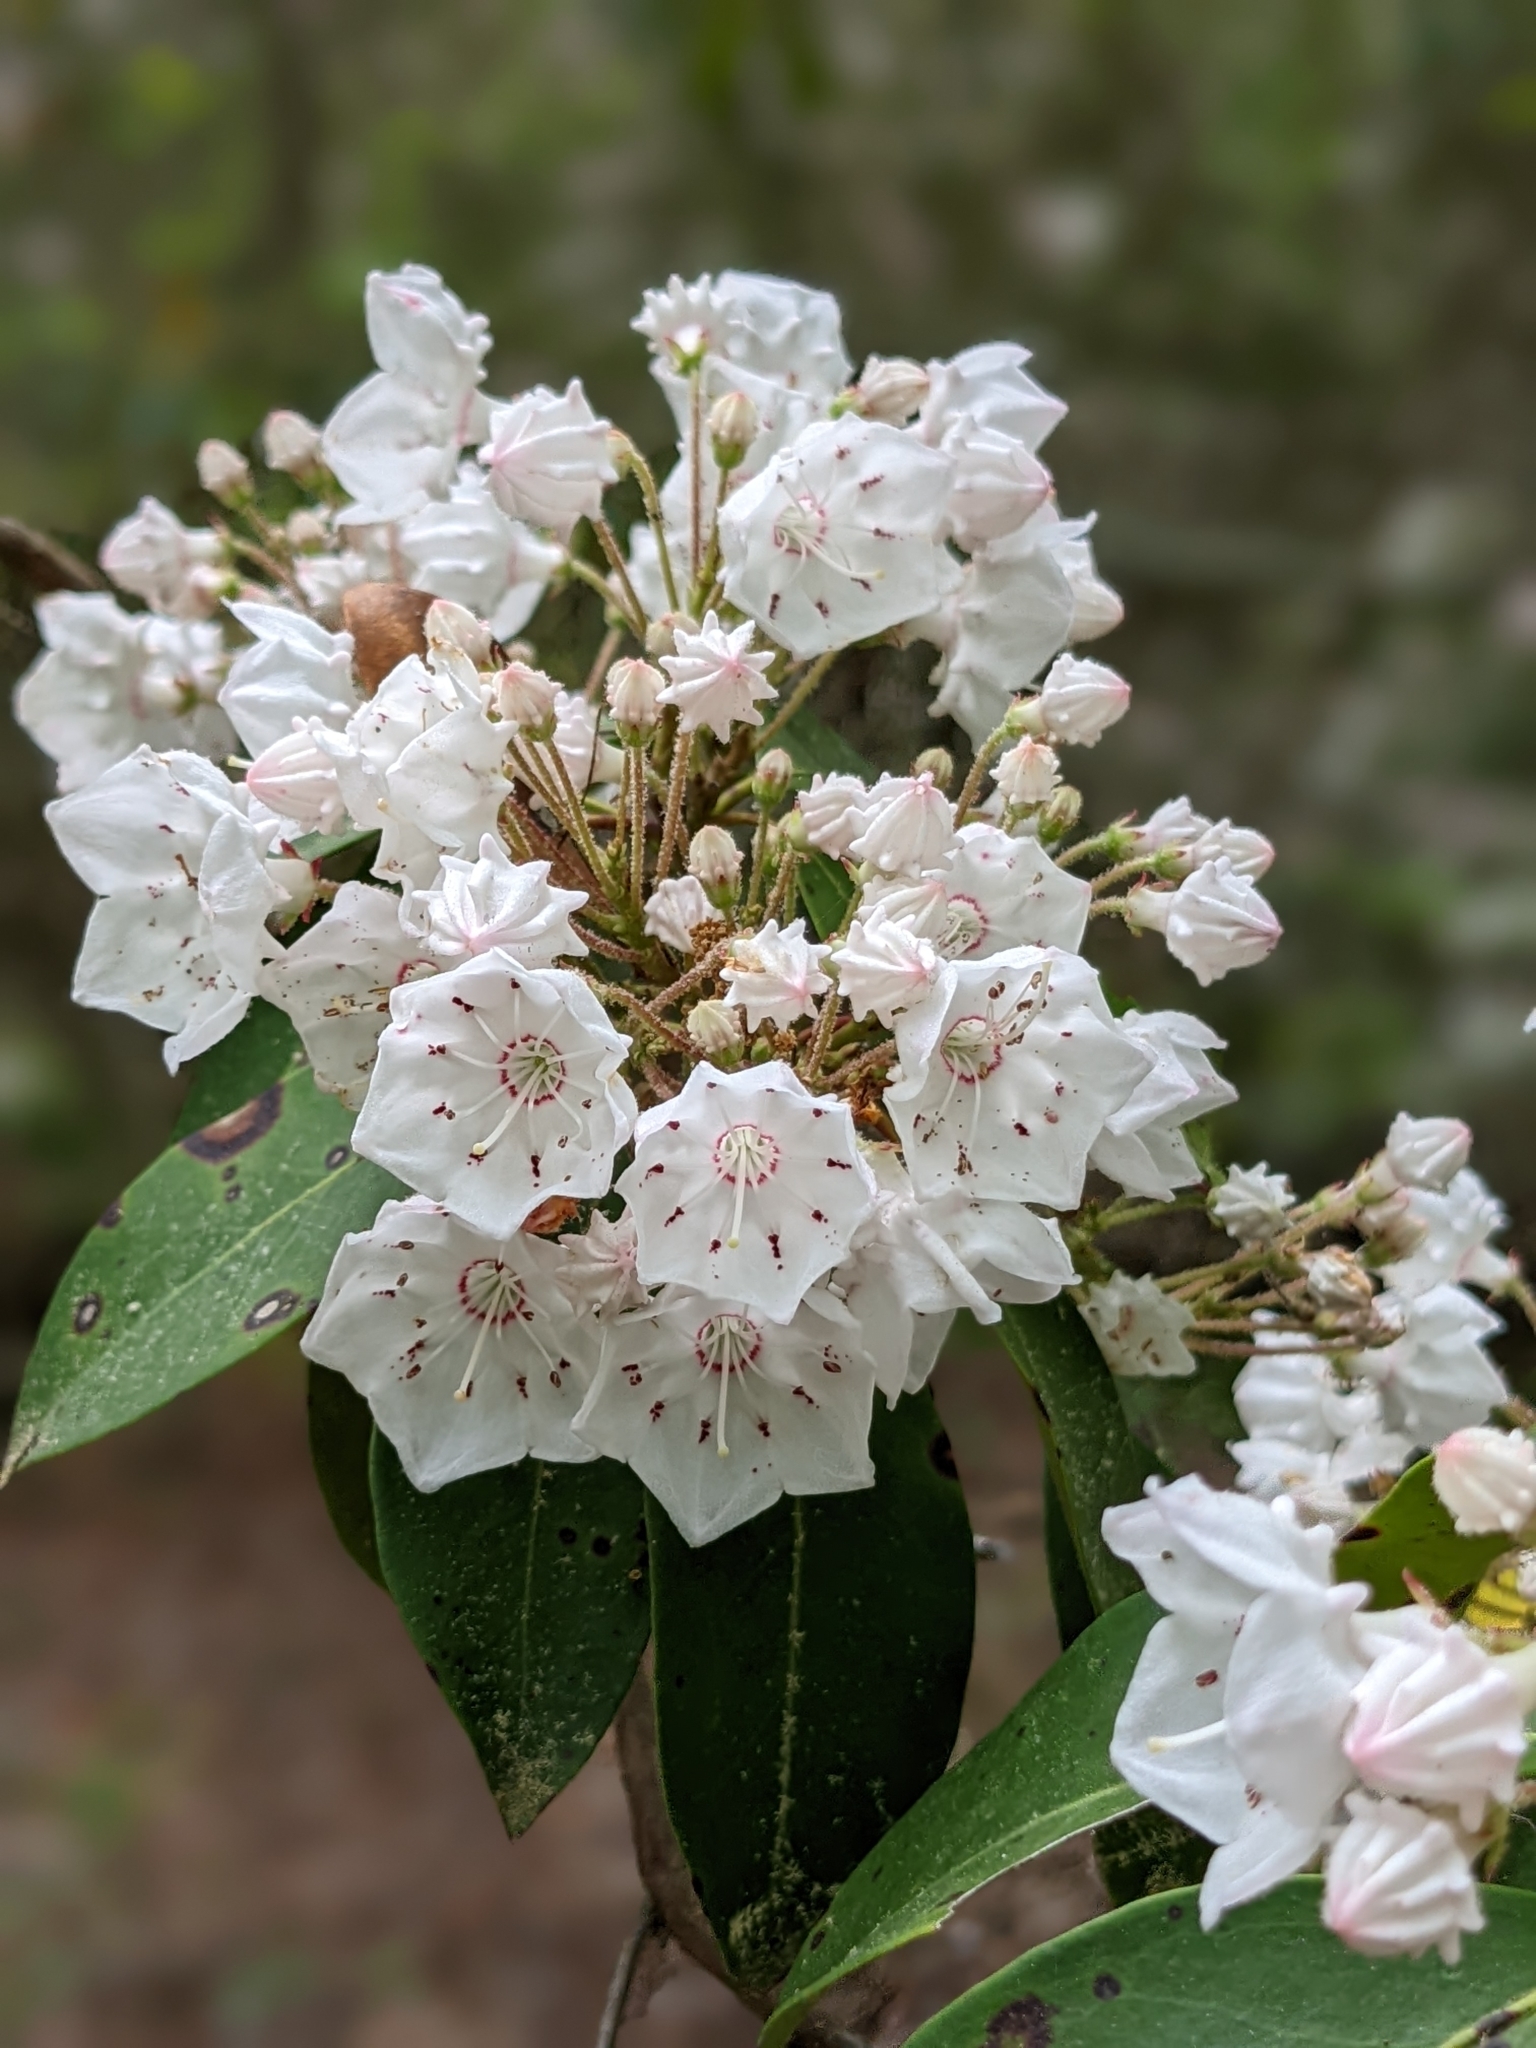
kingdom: Plantae
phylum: Tracheophyta
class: Magnoliopsida
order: Ericales
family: Ericaceae
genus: Kalmia
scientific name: Kalmia latifolia
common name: Mountain-laurel
